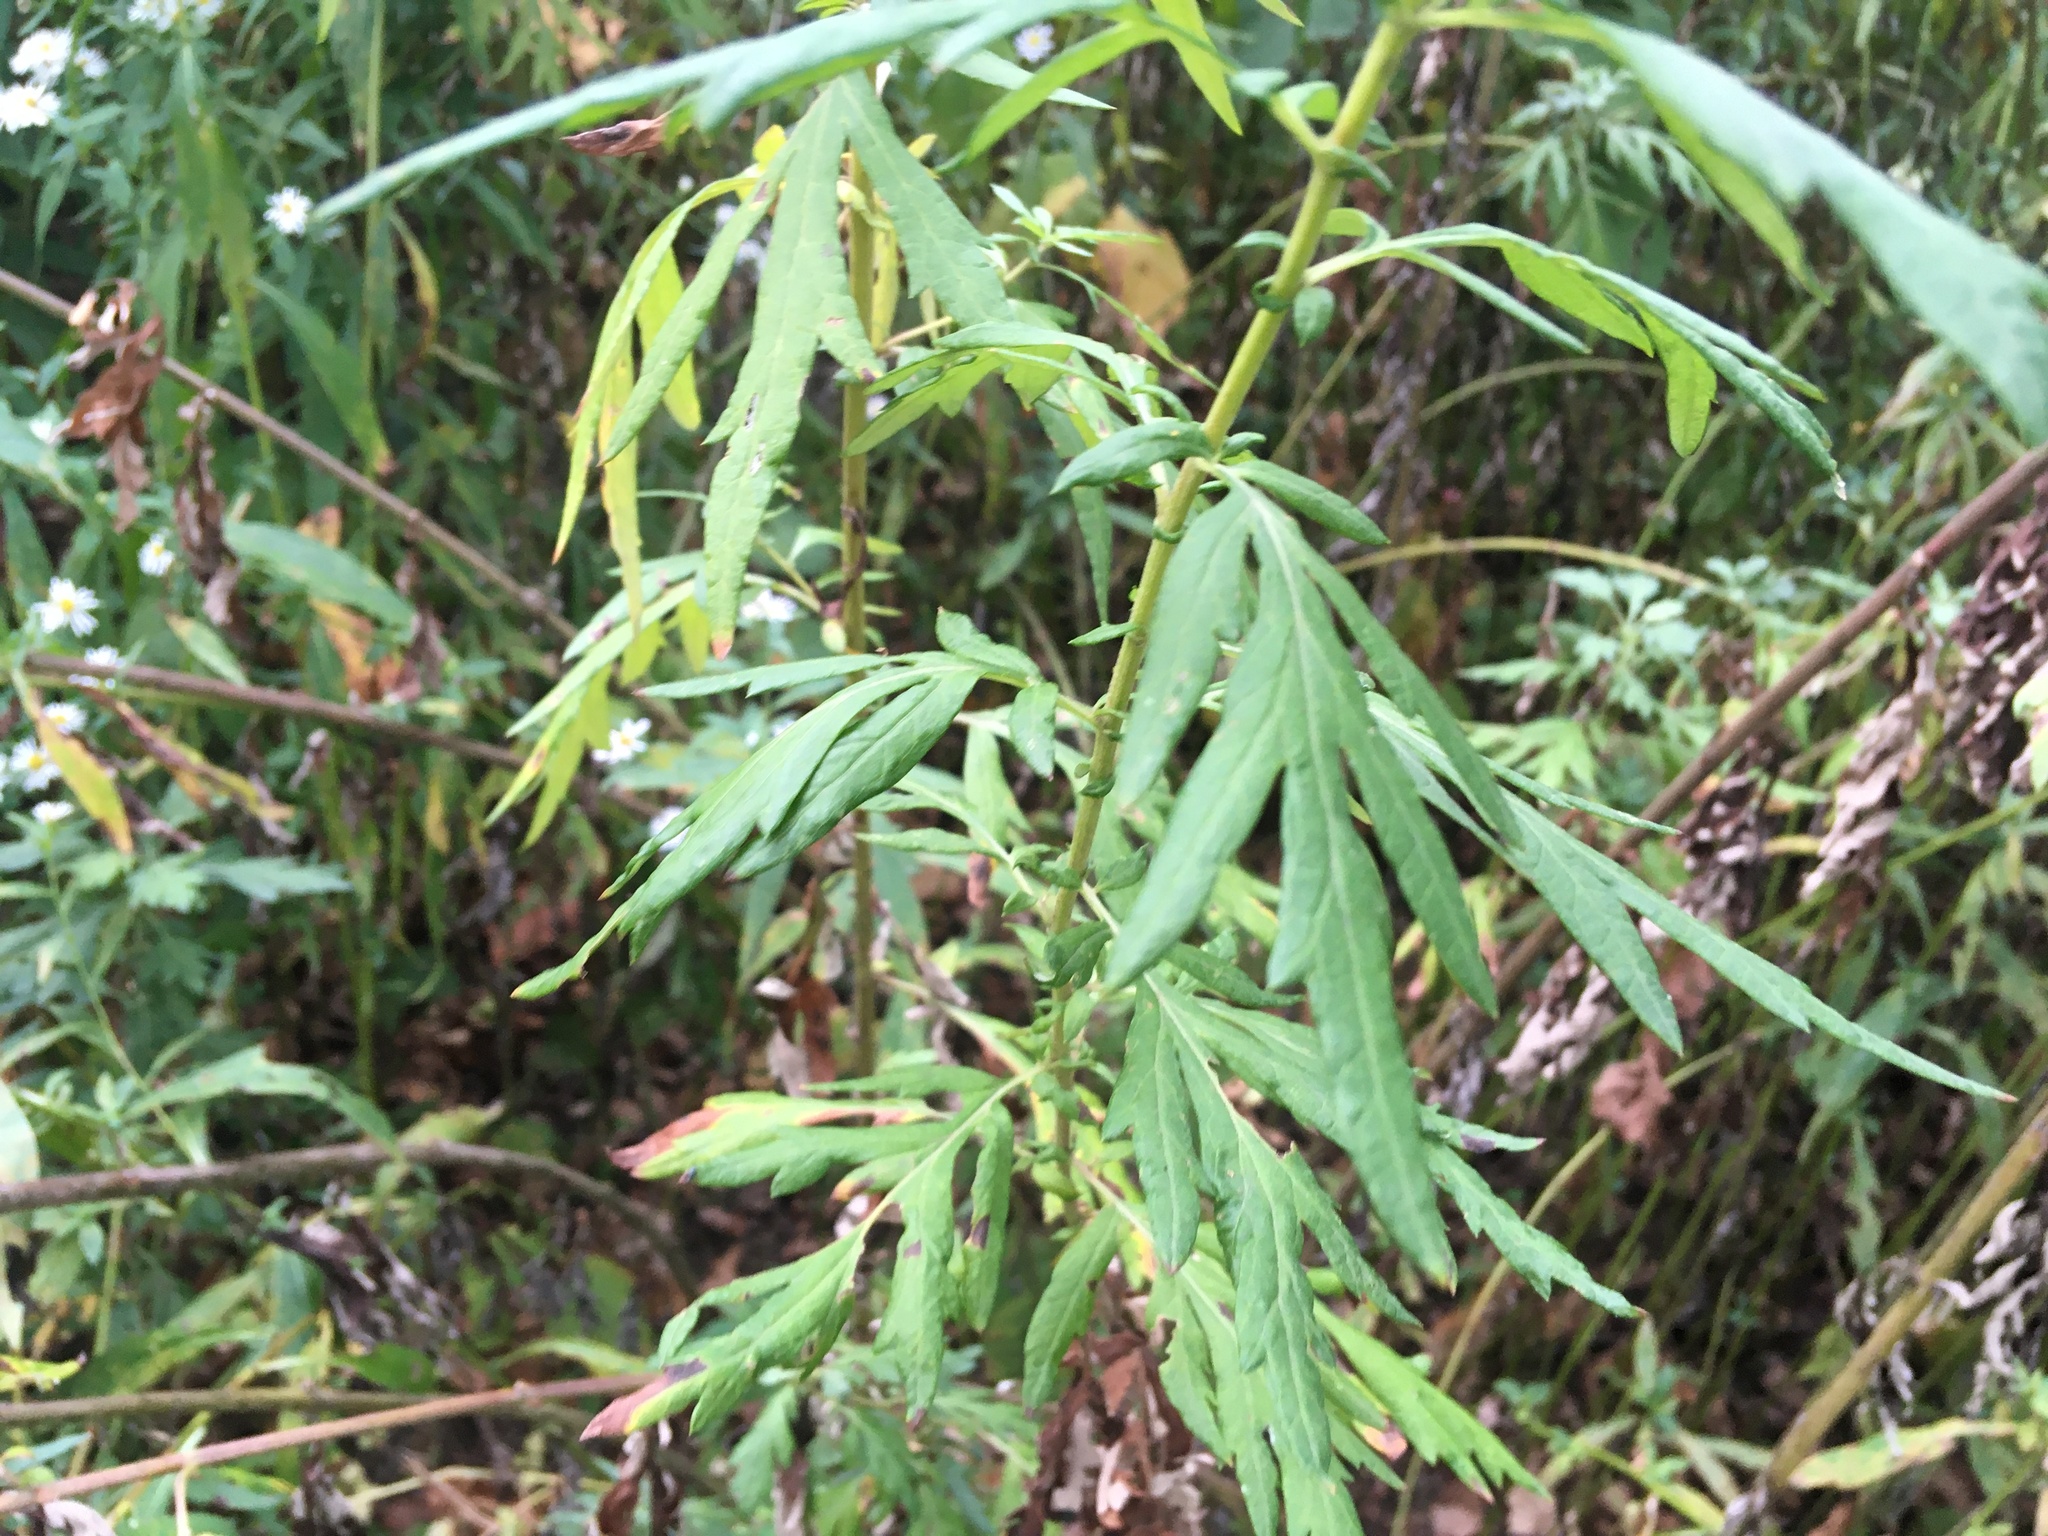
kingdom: Plantae
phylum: Tracheophyta
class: Magnoliopsida
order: Asterales
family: Asteraceae
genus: Artemisia
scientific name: Artemisia vulgaris
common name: Mugwort
